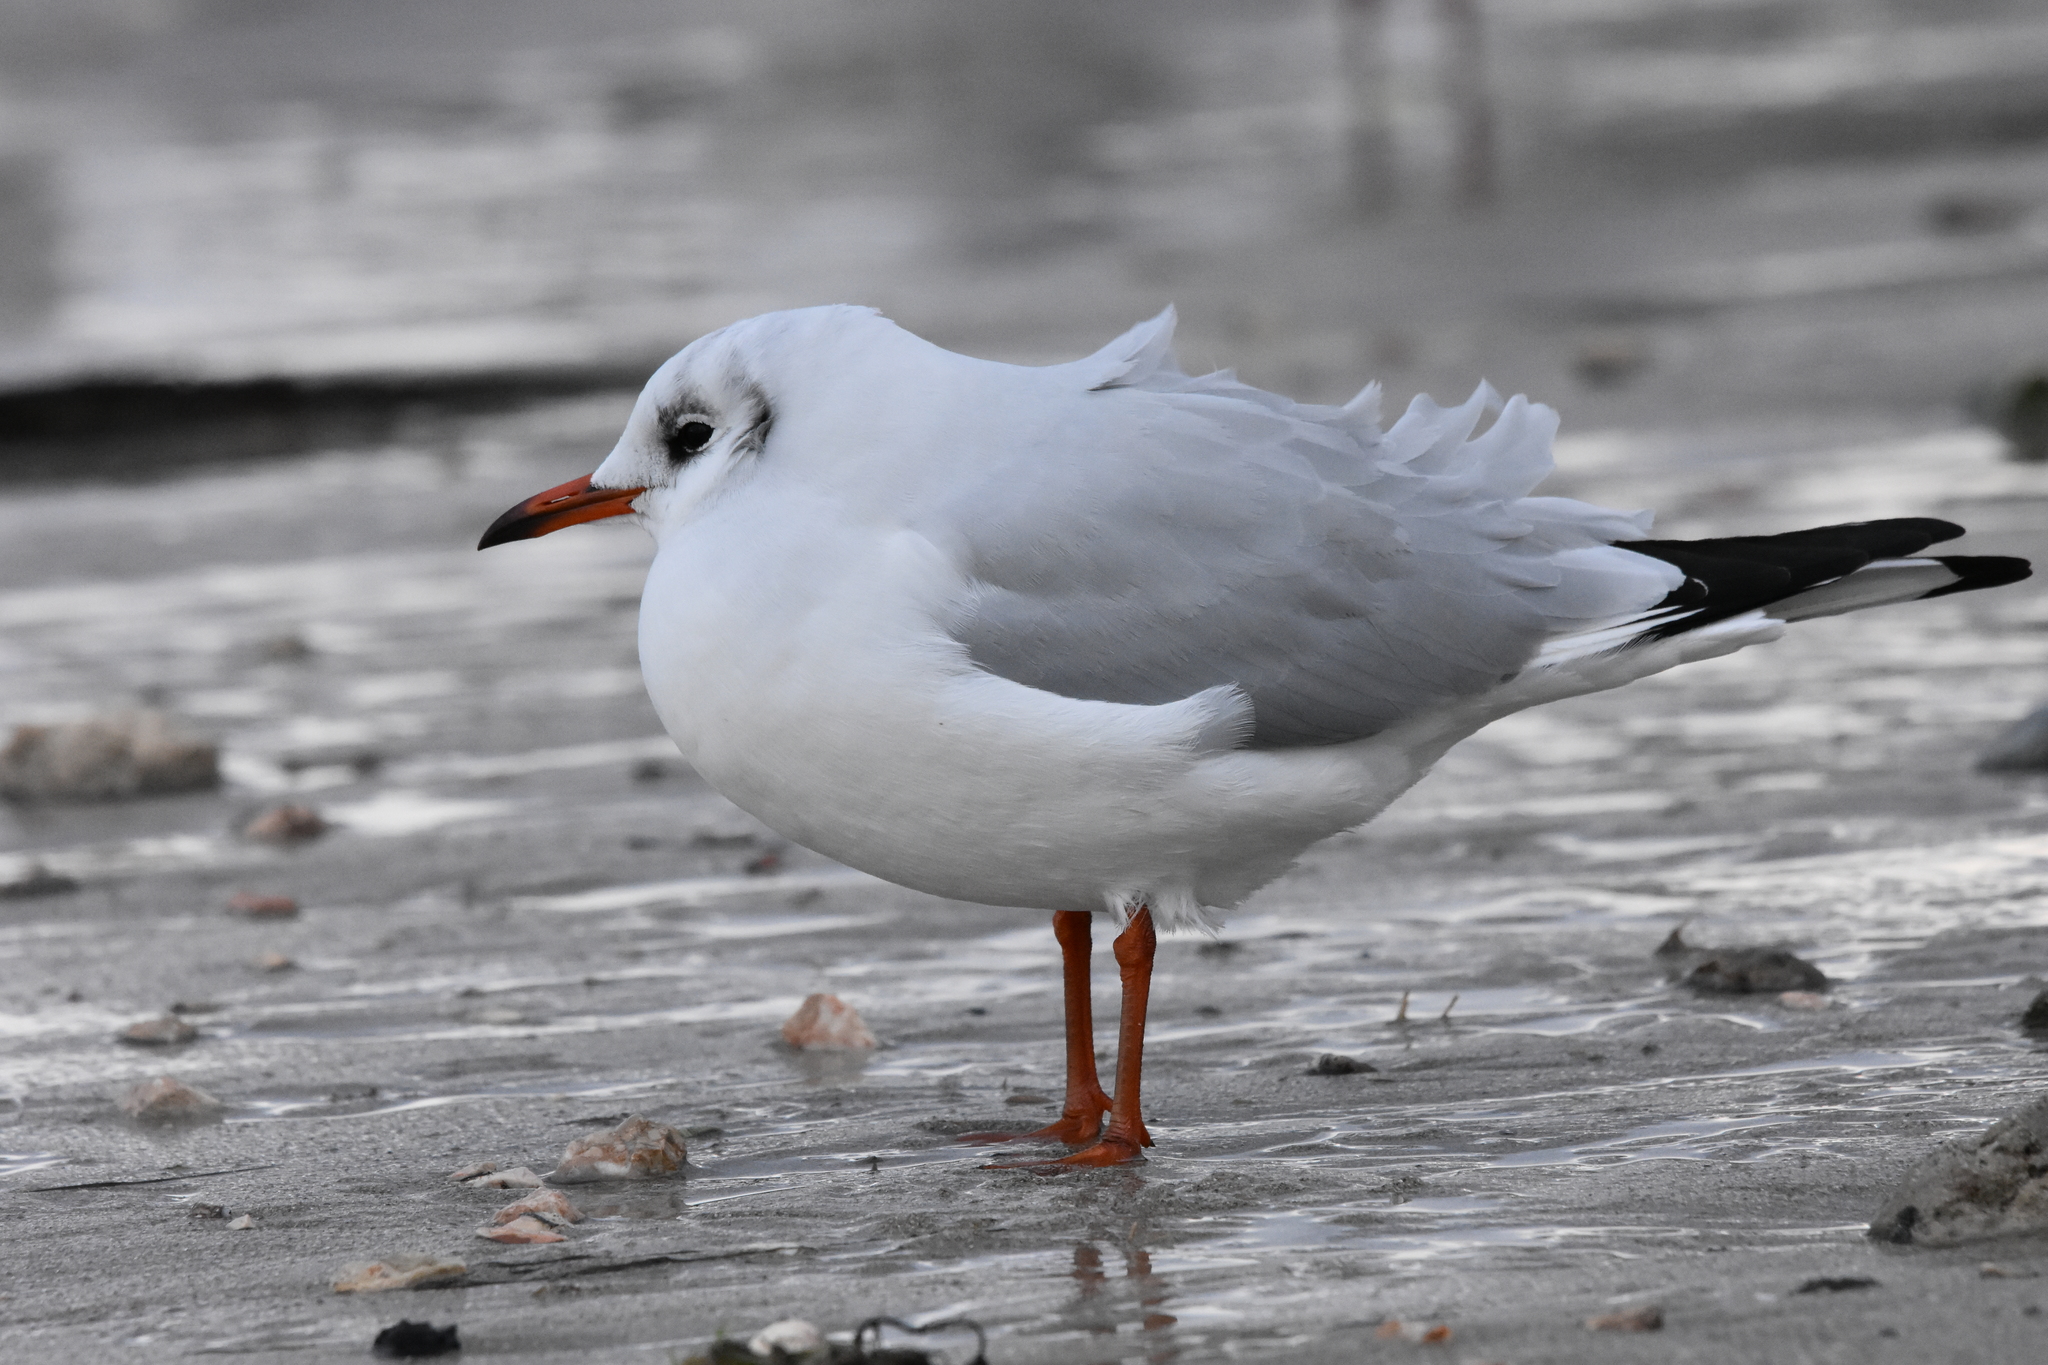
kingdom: Animalia
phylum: Chordata
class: Aves
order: Charadriiformes
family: Laridae
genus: Chroicocephalus
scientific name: Chroicocephalus ridibundus
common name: Black-headed gull
